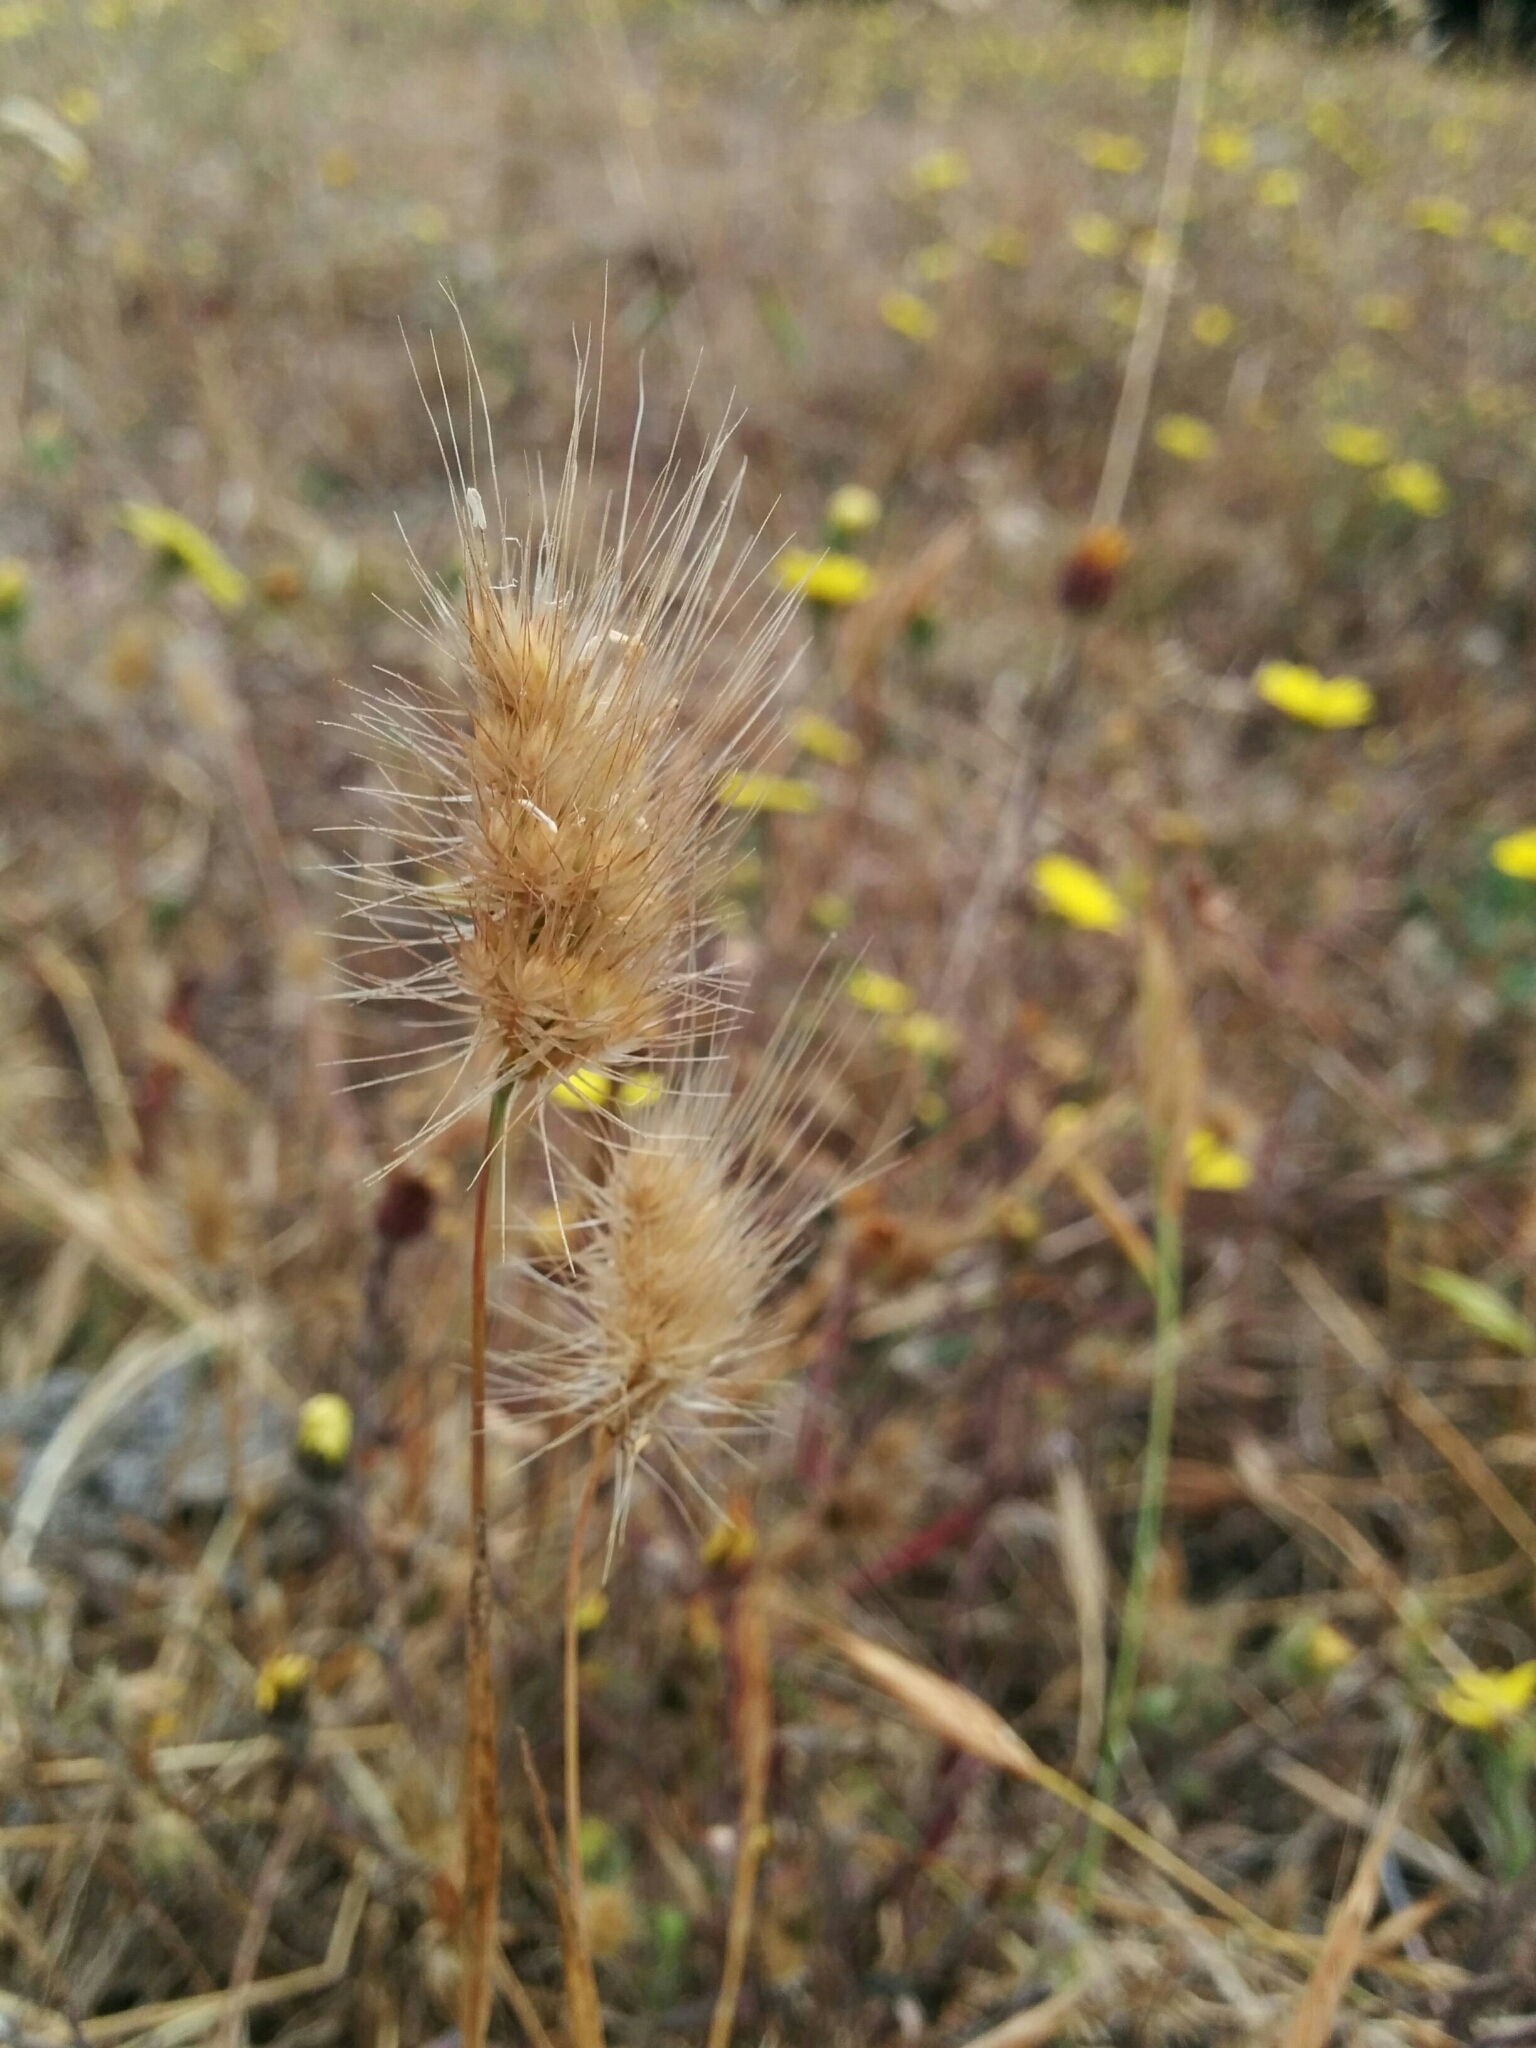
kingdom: Plantae
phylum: Tracheophyta
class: Liliopsida
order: Poales
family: Poaceae
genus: Cynosurus
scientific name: Cynosurus echinatus
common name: Rough dog's-tail
